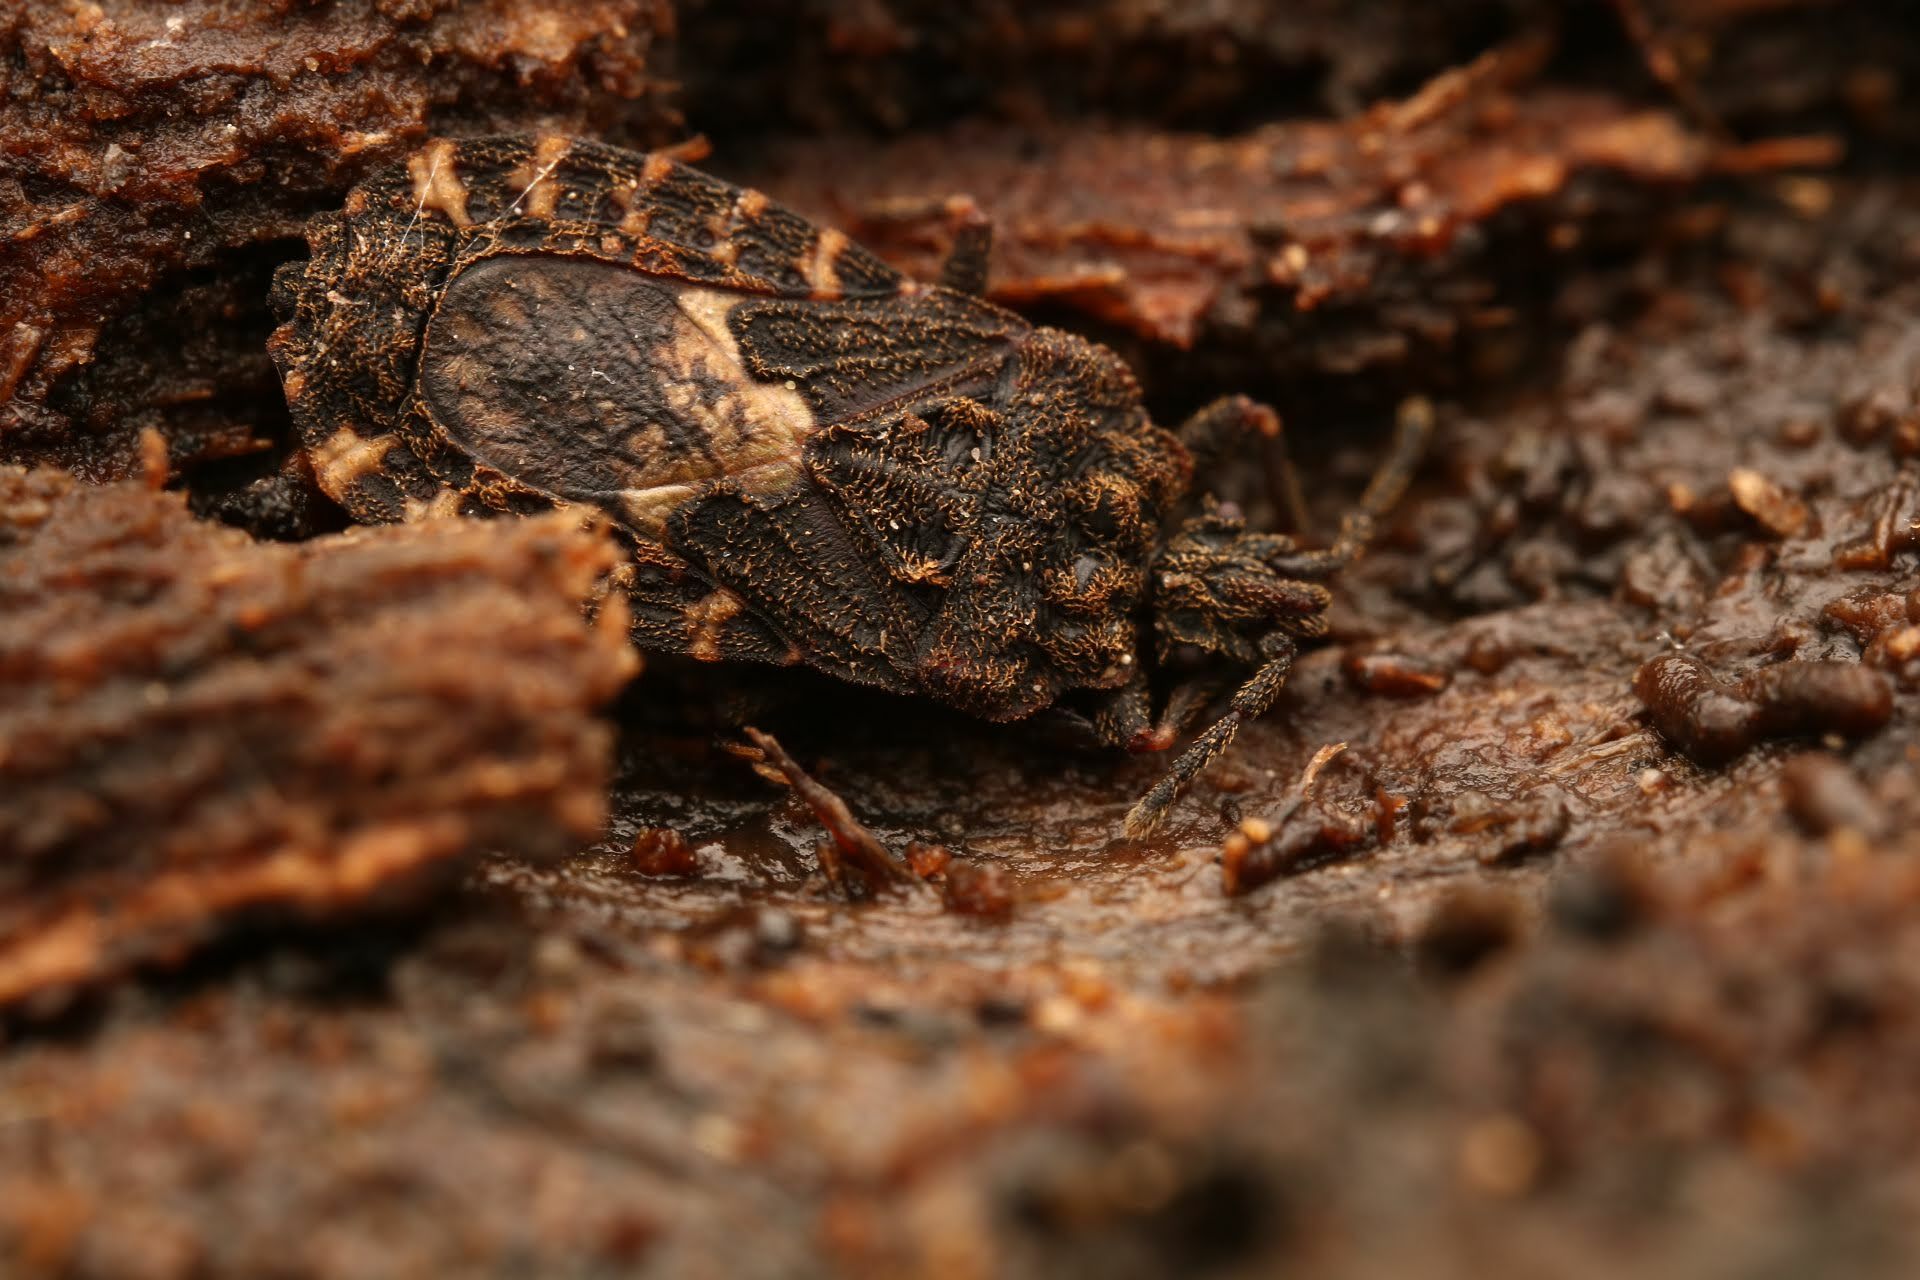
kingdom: Animalia
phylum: Arthropoda
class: Insecta
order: Hemiptera
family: Aradidae
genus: Mezira
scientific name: Mezira
